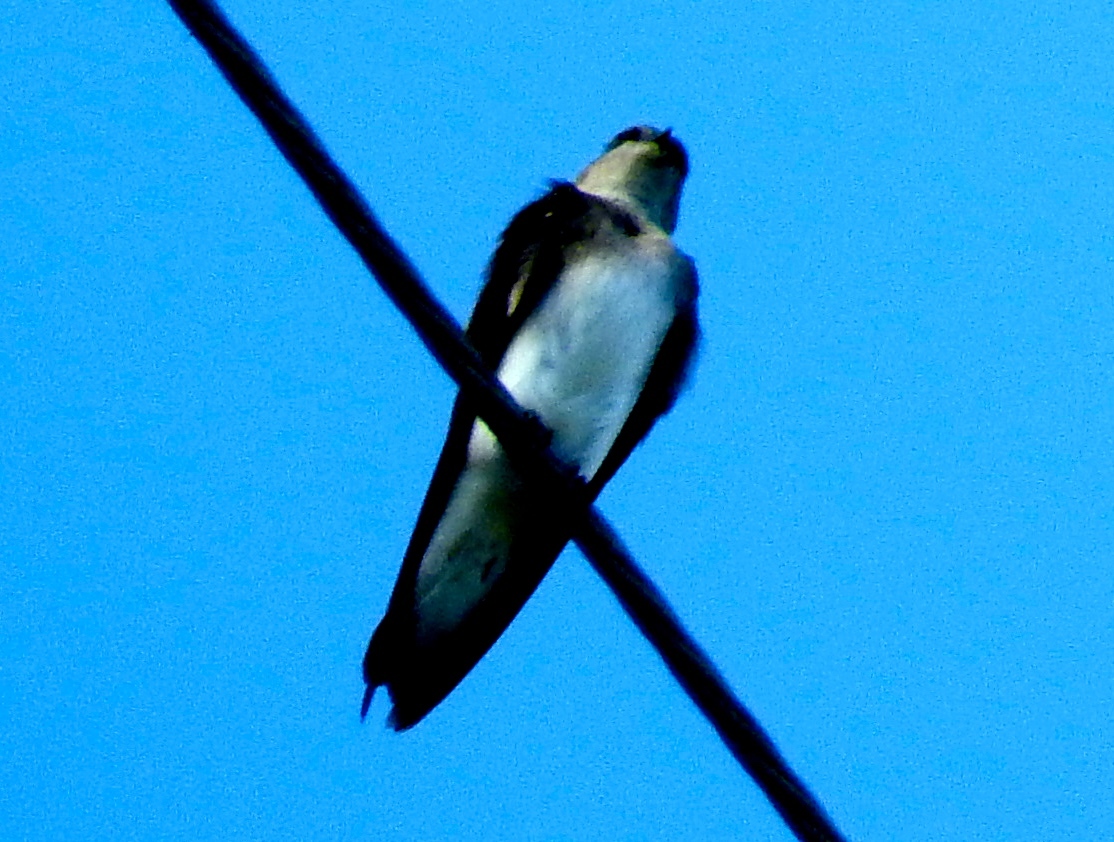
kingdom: Animalia
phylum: Chordata
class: Aves
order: Passeriformes
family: Hirundinidae
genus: Hirundo
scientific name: Hirundo rustica
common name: Barn swallow
